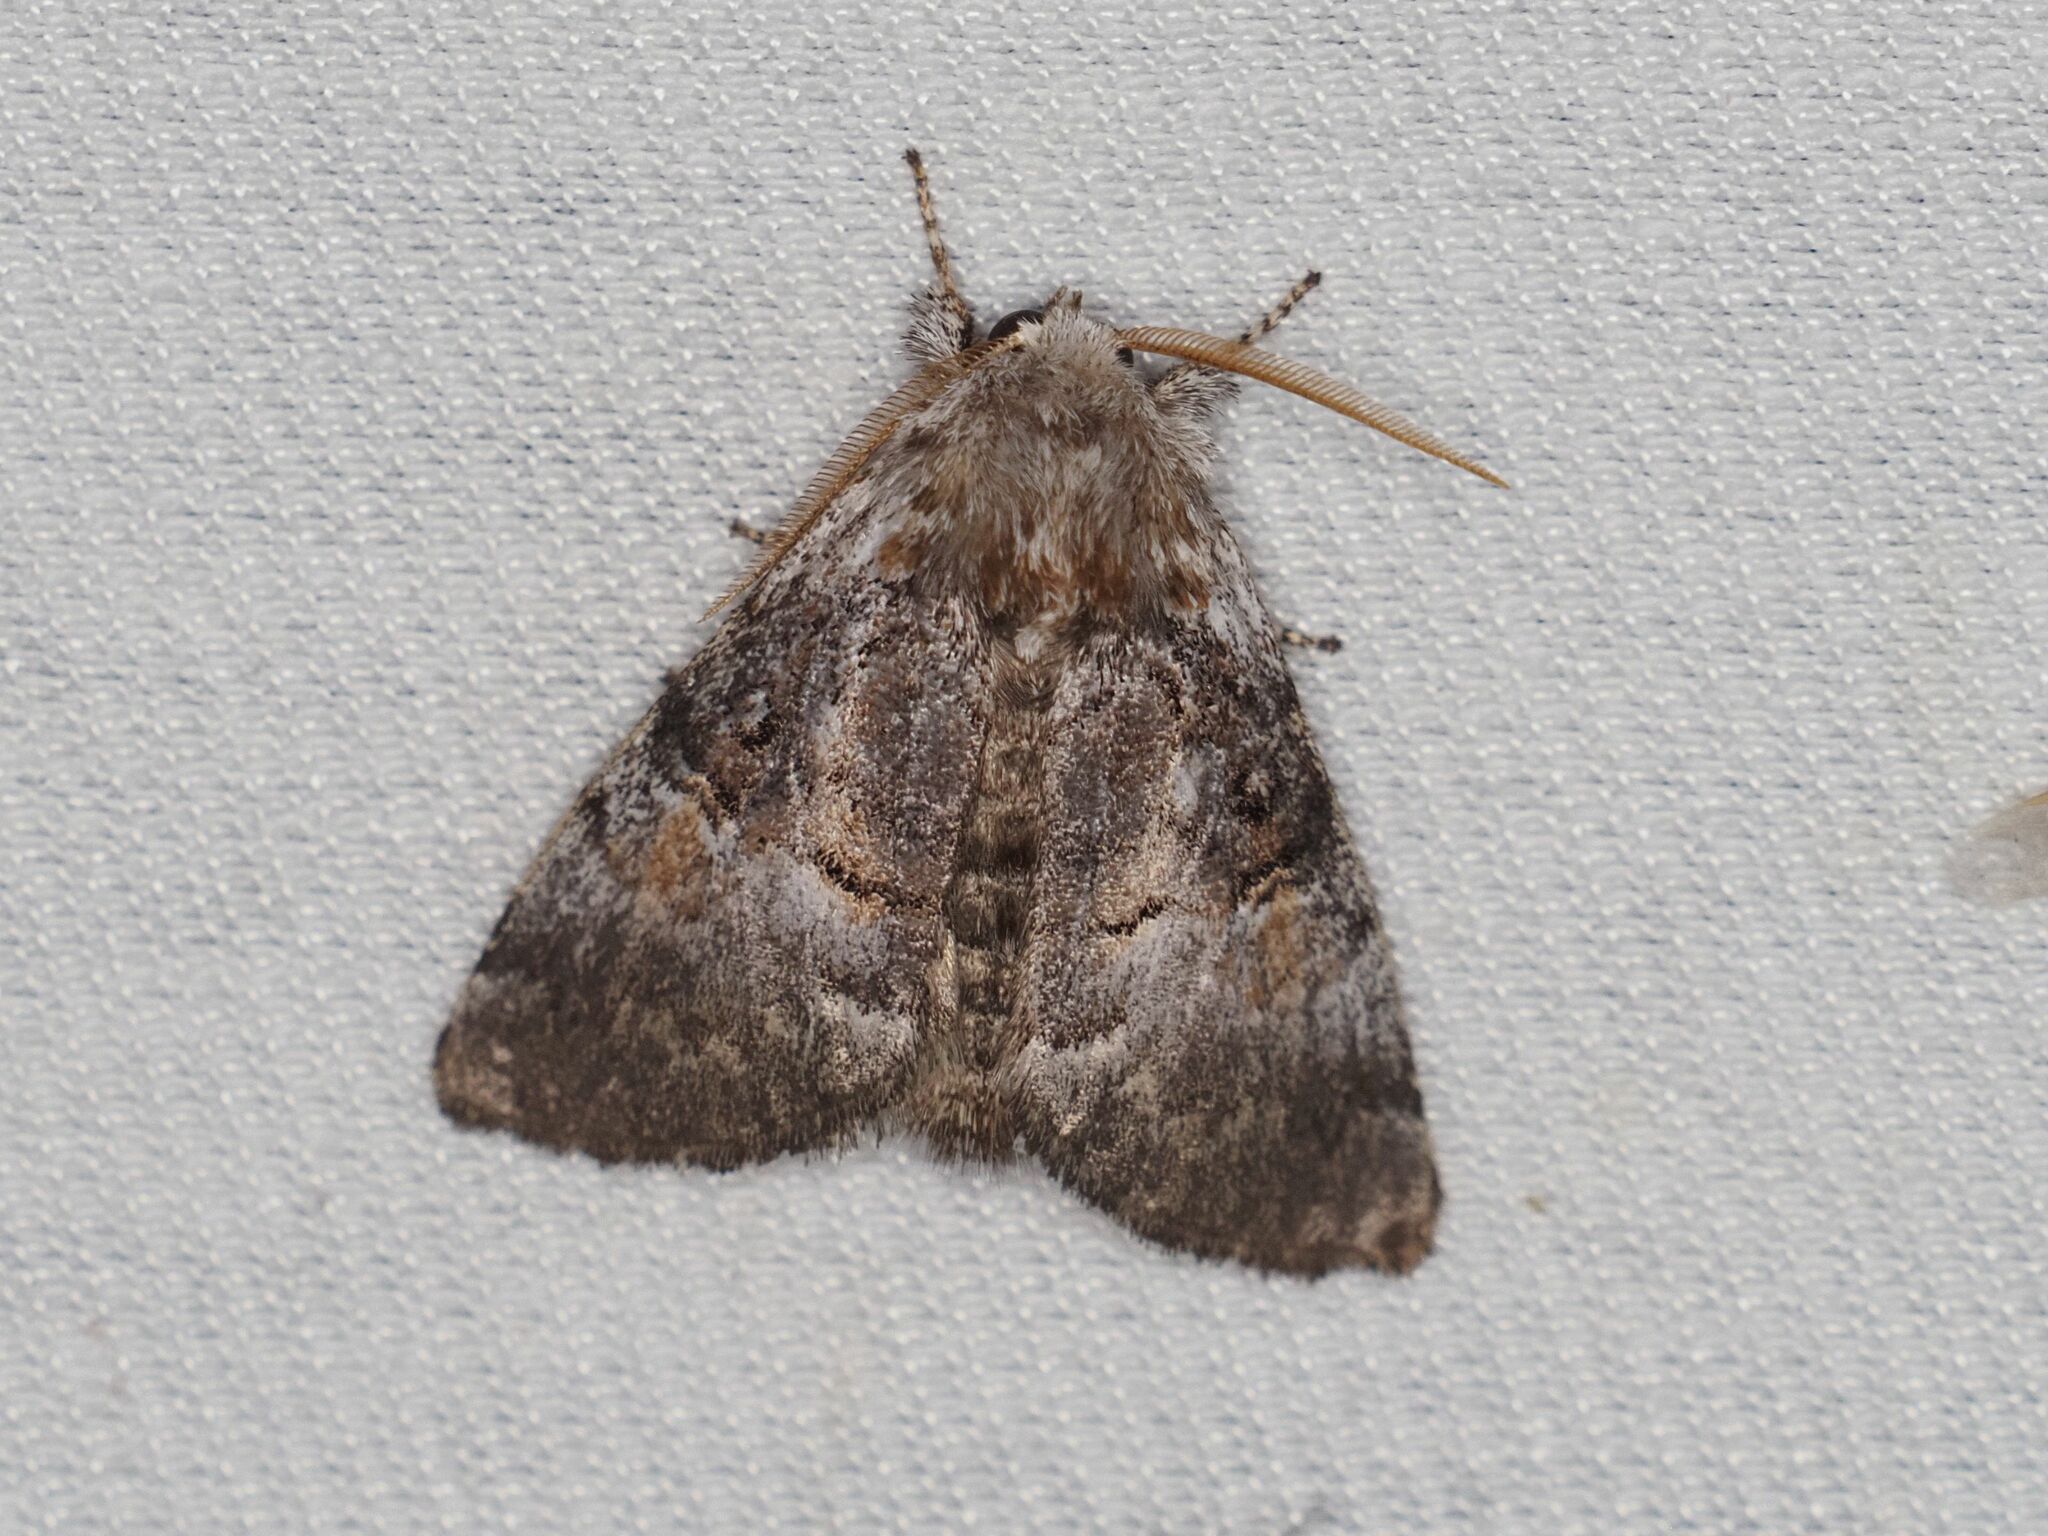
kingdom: Animalia
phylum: Arthropoda
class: Insecta
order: Lepidoptera
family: Noctuidae
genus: Colocasia
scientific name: Colocasia coryli
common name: Nut-tree tussock
